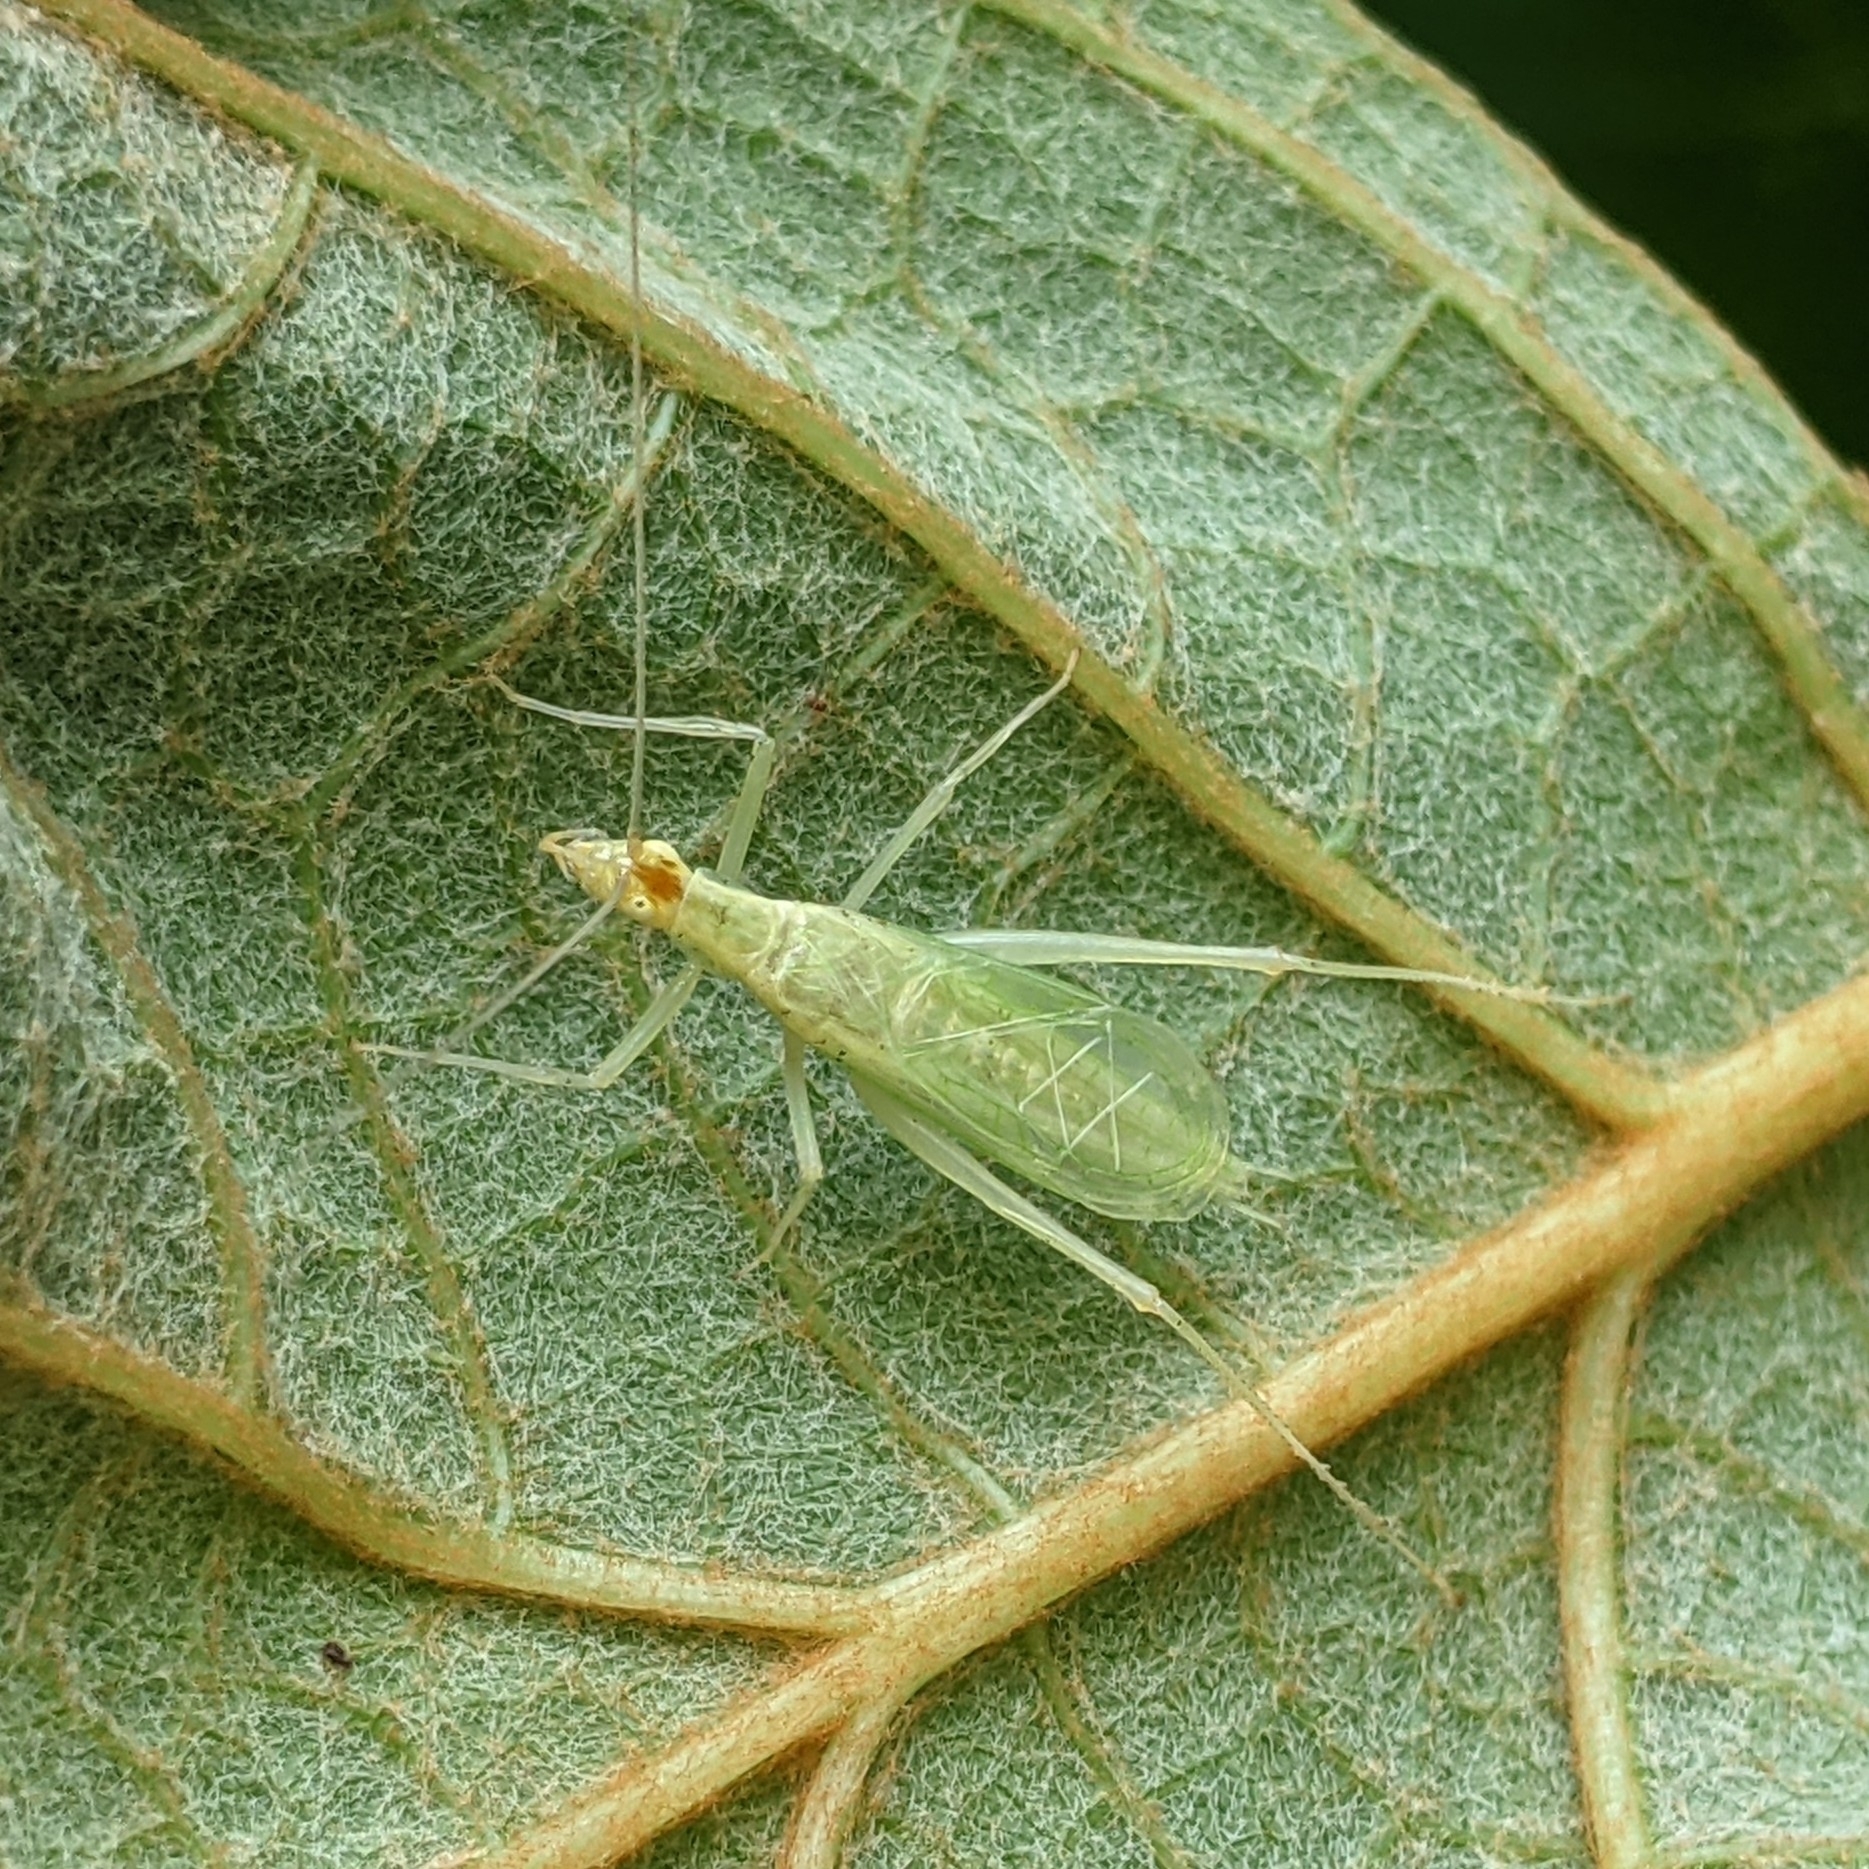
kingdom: Animalia
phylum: Arthropoda
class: Insecta
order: Orthoptera
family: Gryllidae
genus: Oecanthus
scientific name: Oecanthus niveus
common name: Narrow-winged tree cricket
